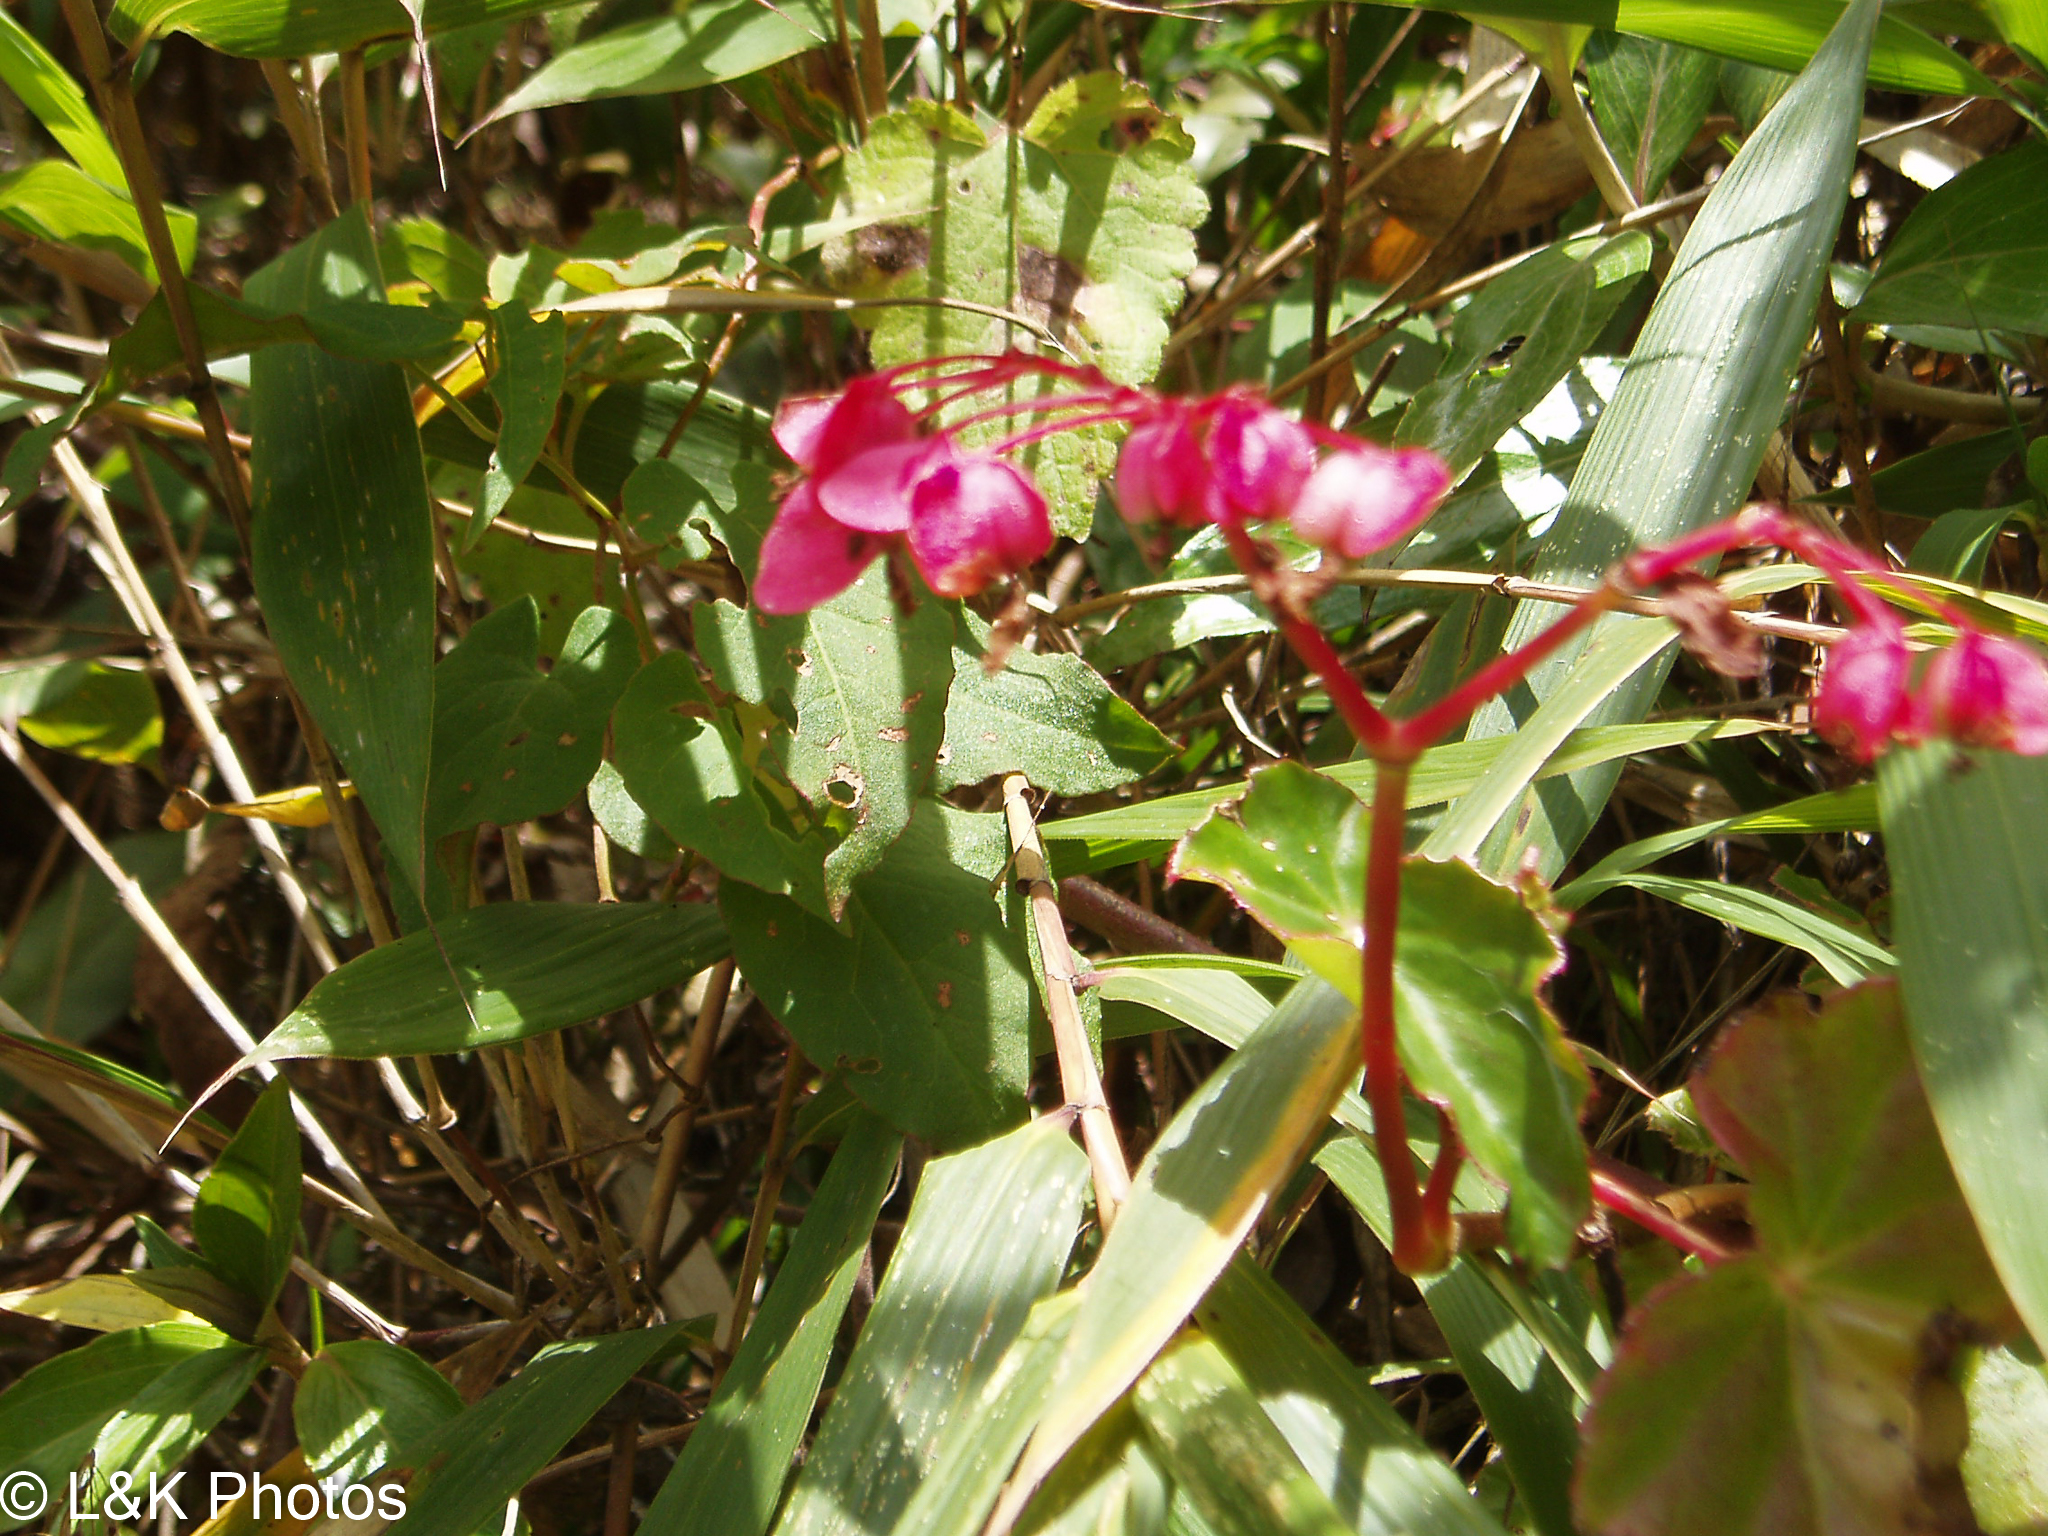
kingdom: Plantae
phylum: Tracheophyta
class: Magnoliopsida
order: Cucurbitales
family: Begoniaceae
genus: Begonia
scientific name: Begonia bracteosa
